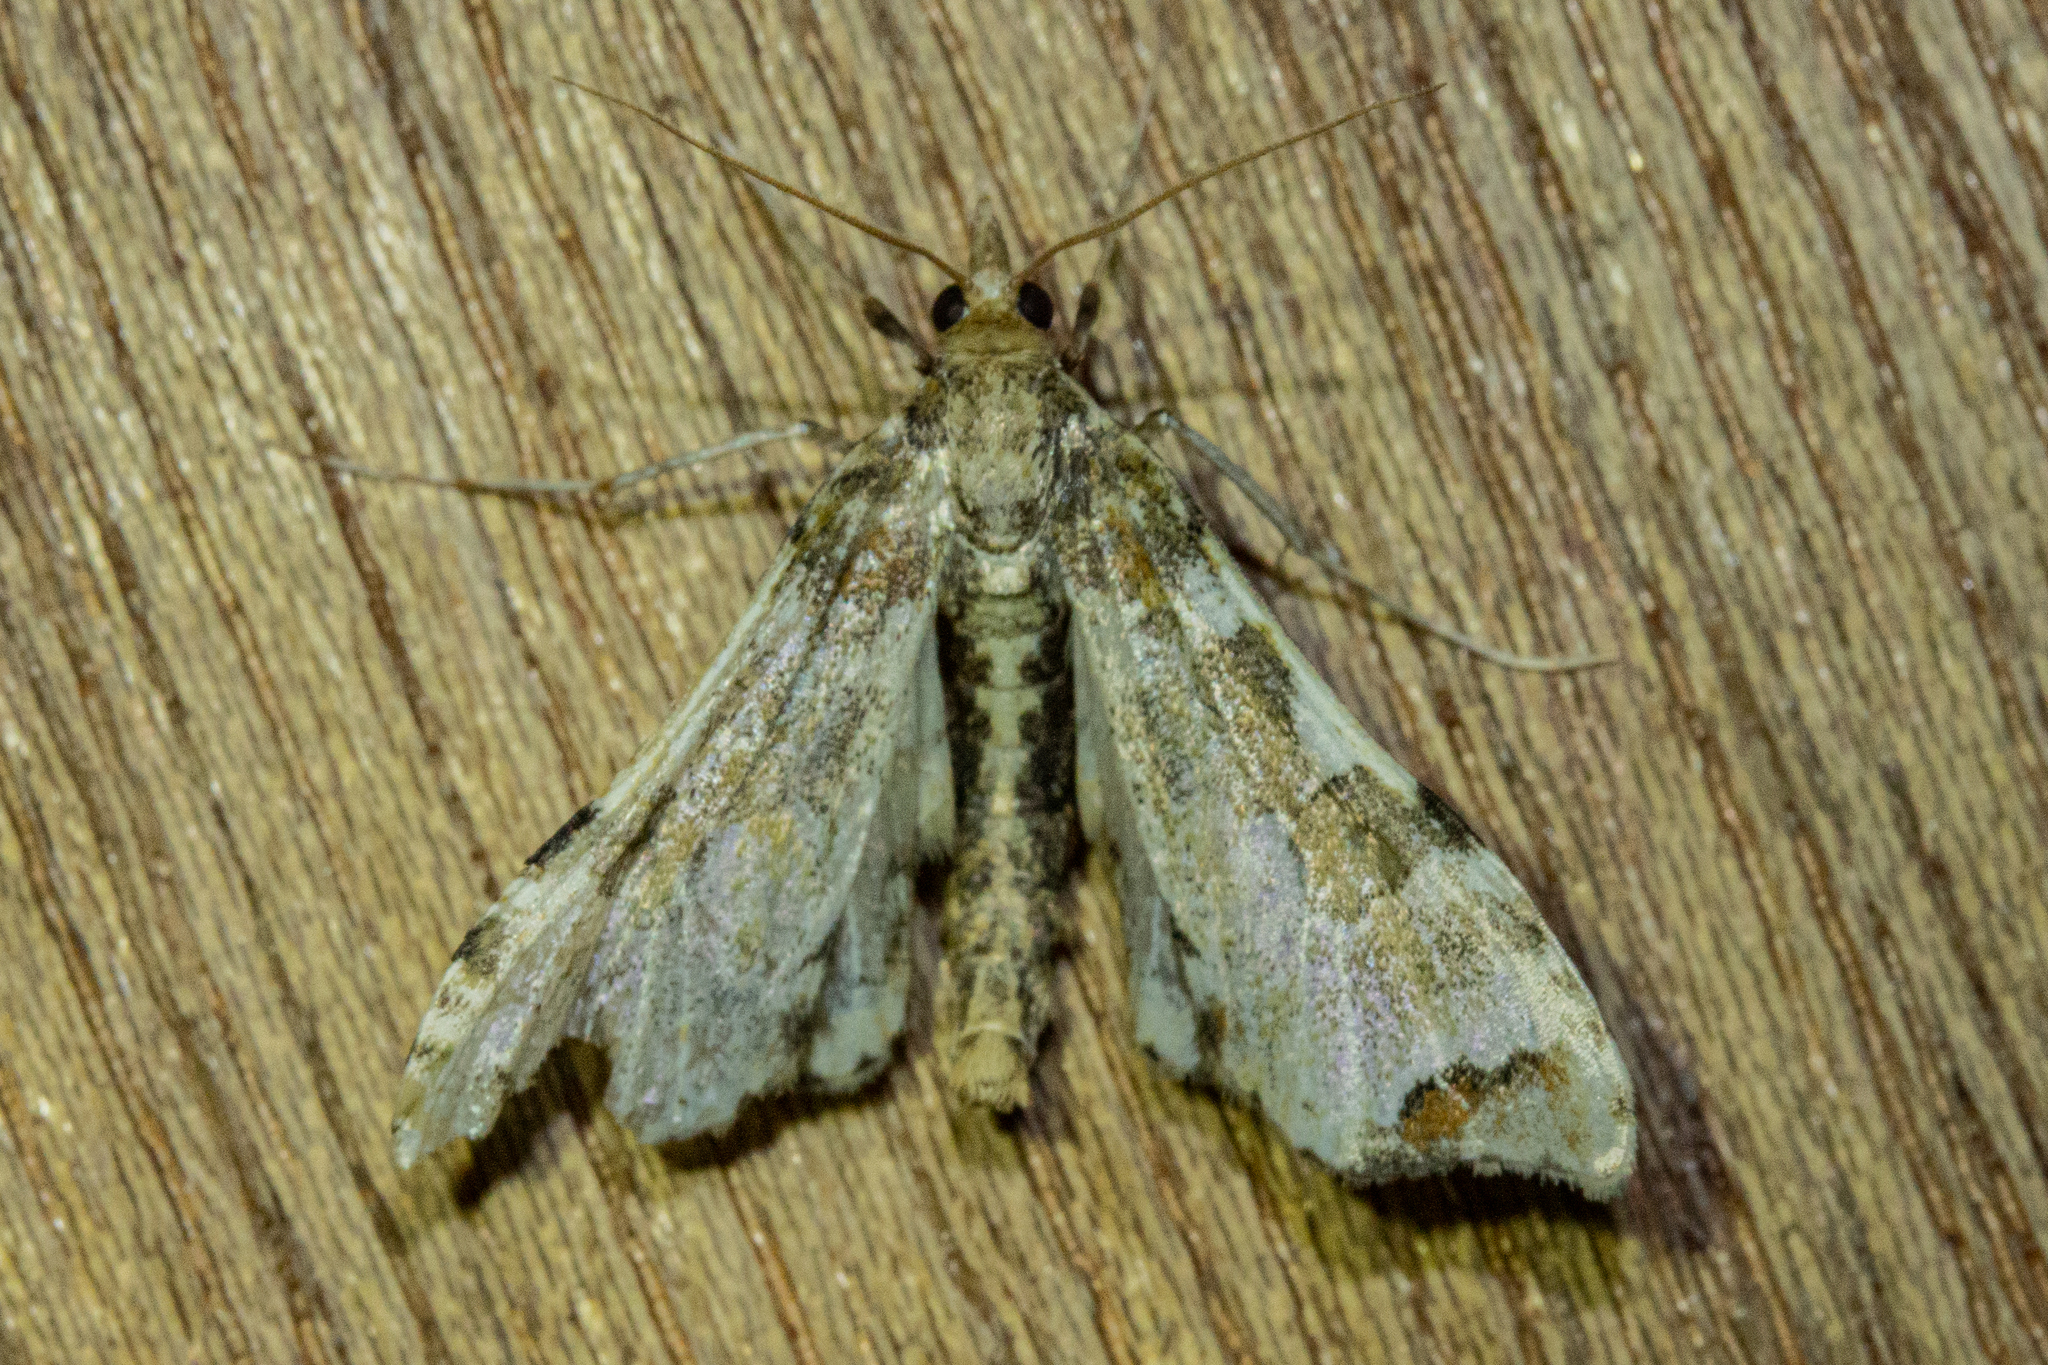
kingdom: Animalia
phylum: Arthropoda
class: Insecta
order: Lepidoptera
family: Crambidae
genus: Sceliodes
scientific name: Sceliodes cordalis
